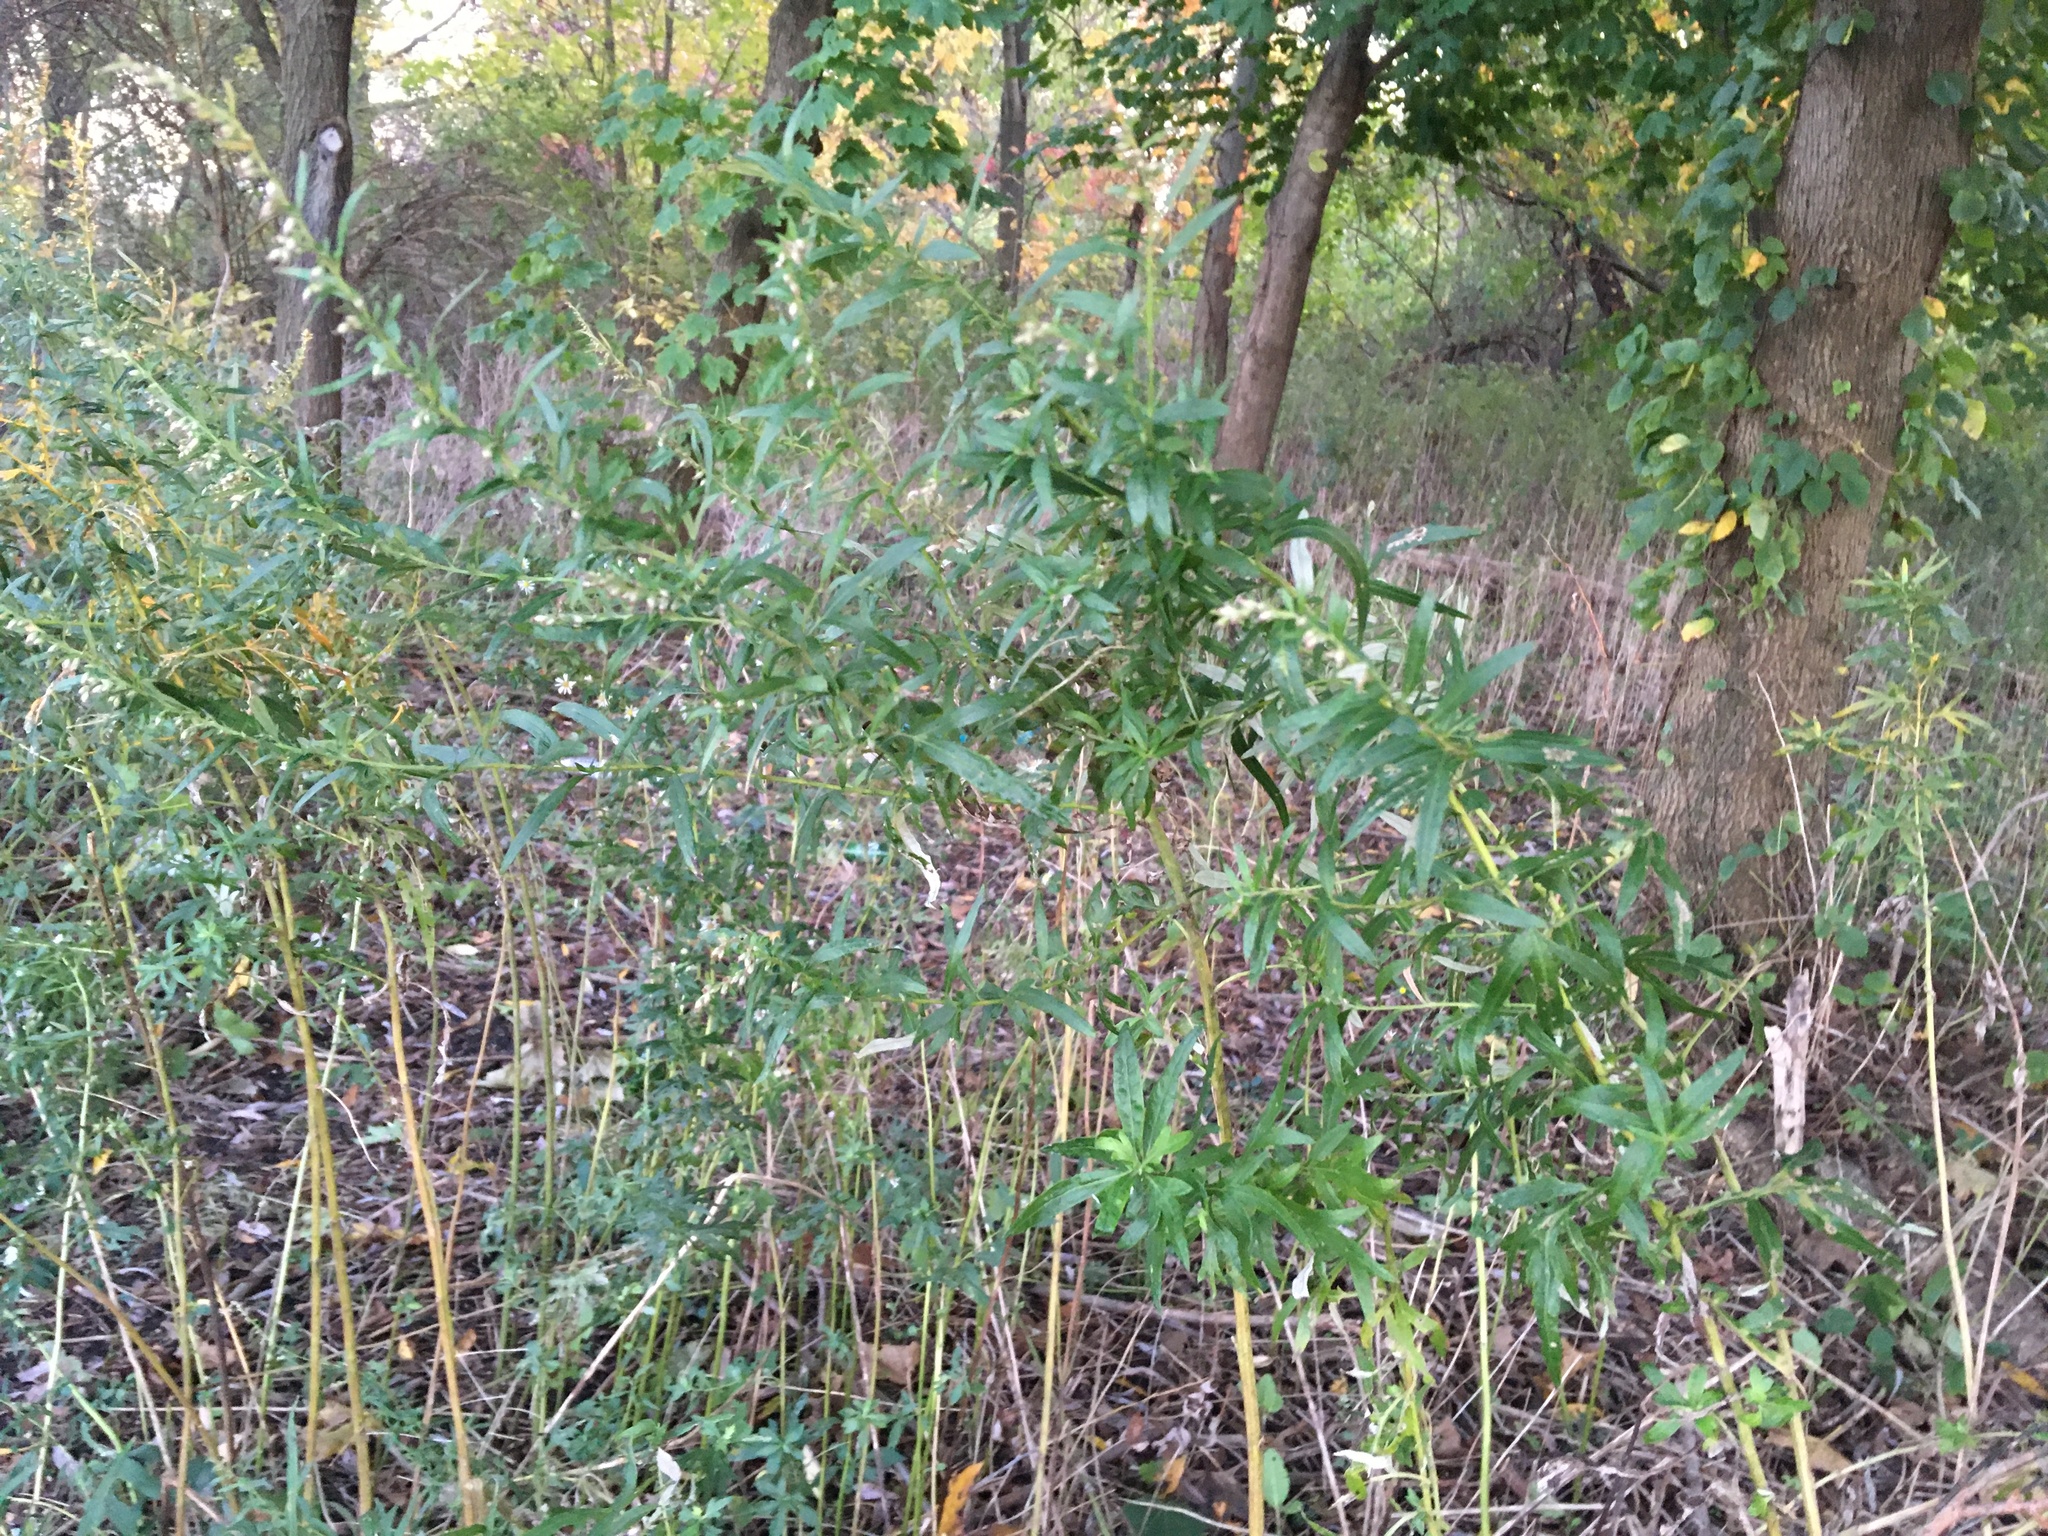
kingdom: Plantae
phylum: Tracheophyta
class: Magnoliopsida
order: Asterales
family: Asteraceae
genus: Artemisia
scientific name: Artemisia vulgaris
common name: Mugwort
